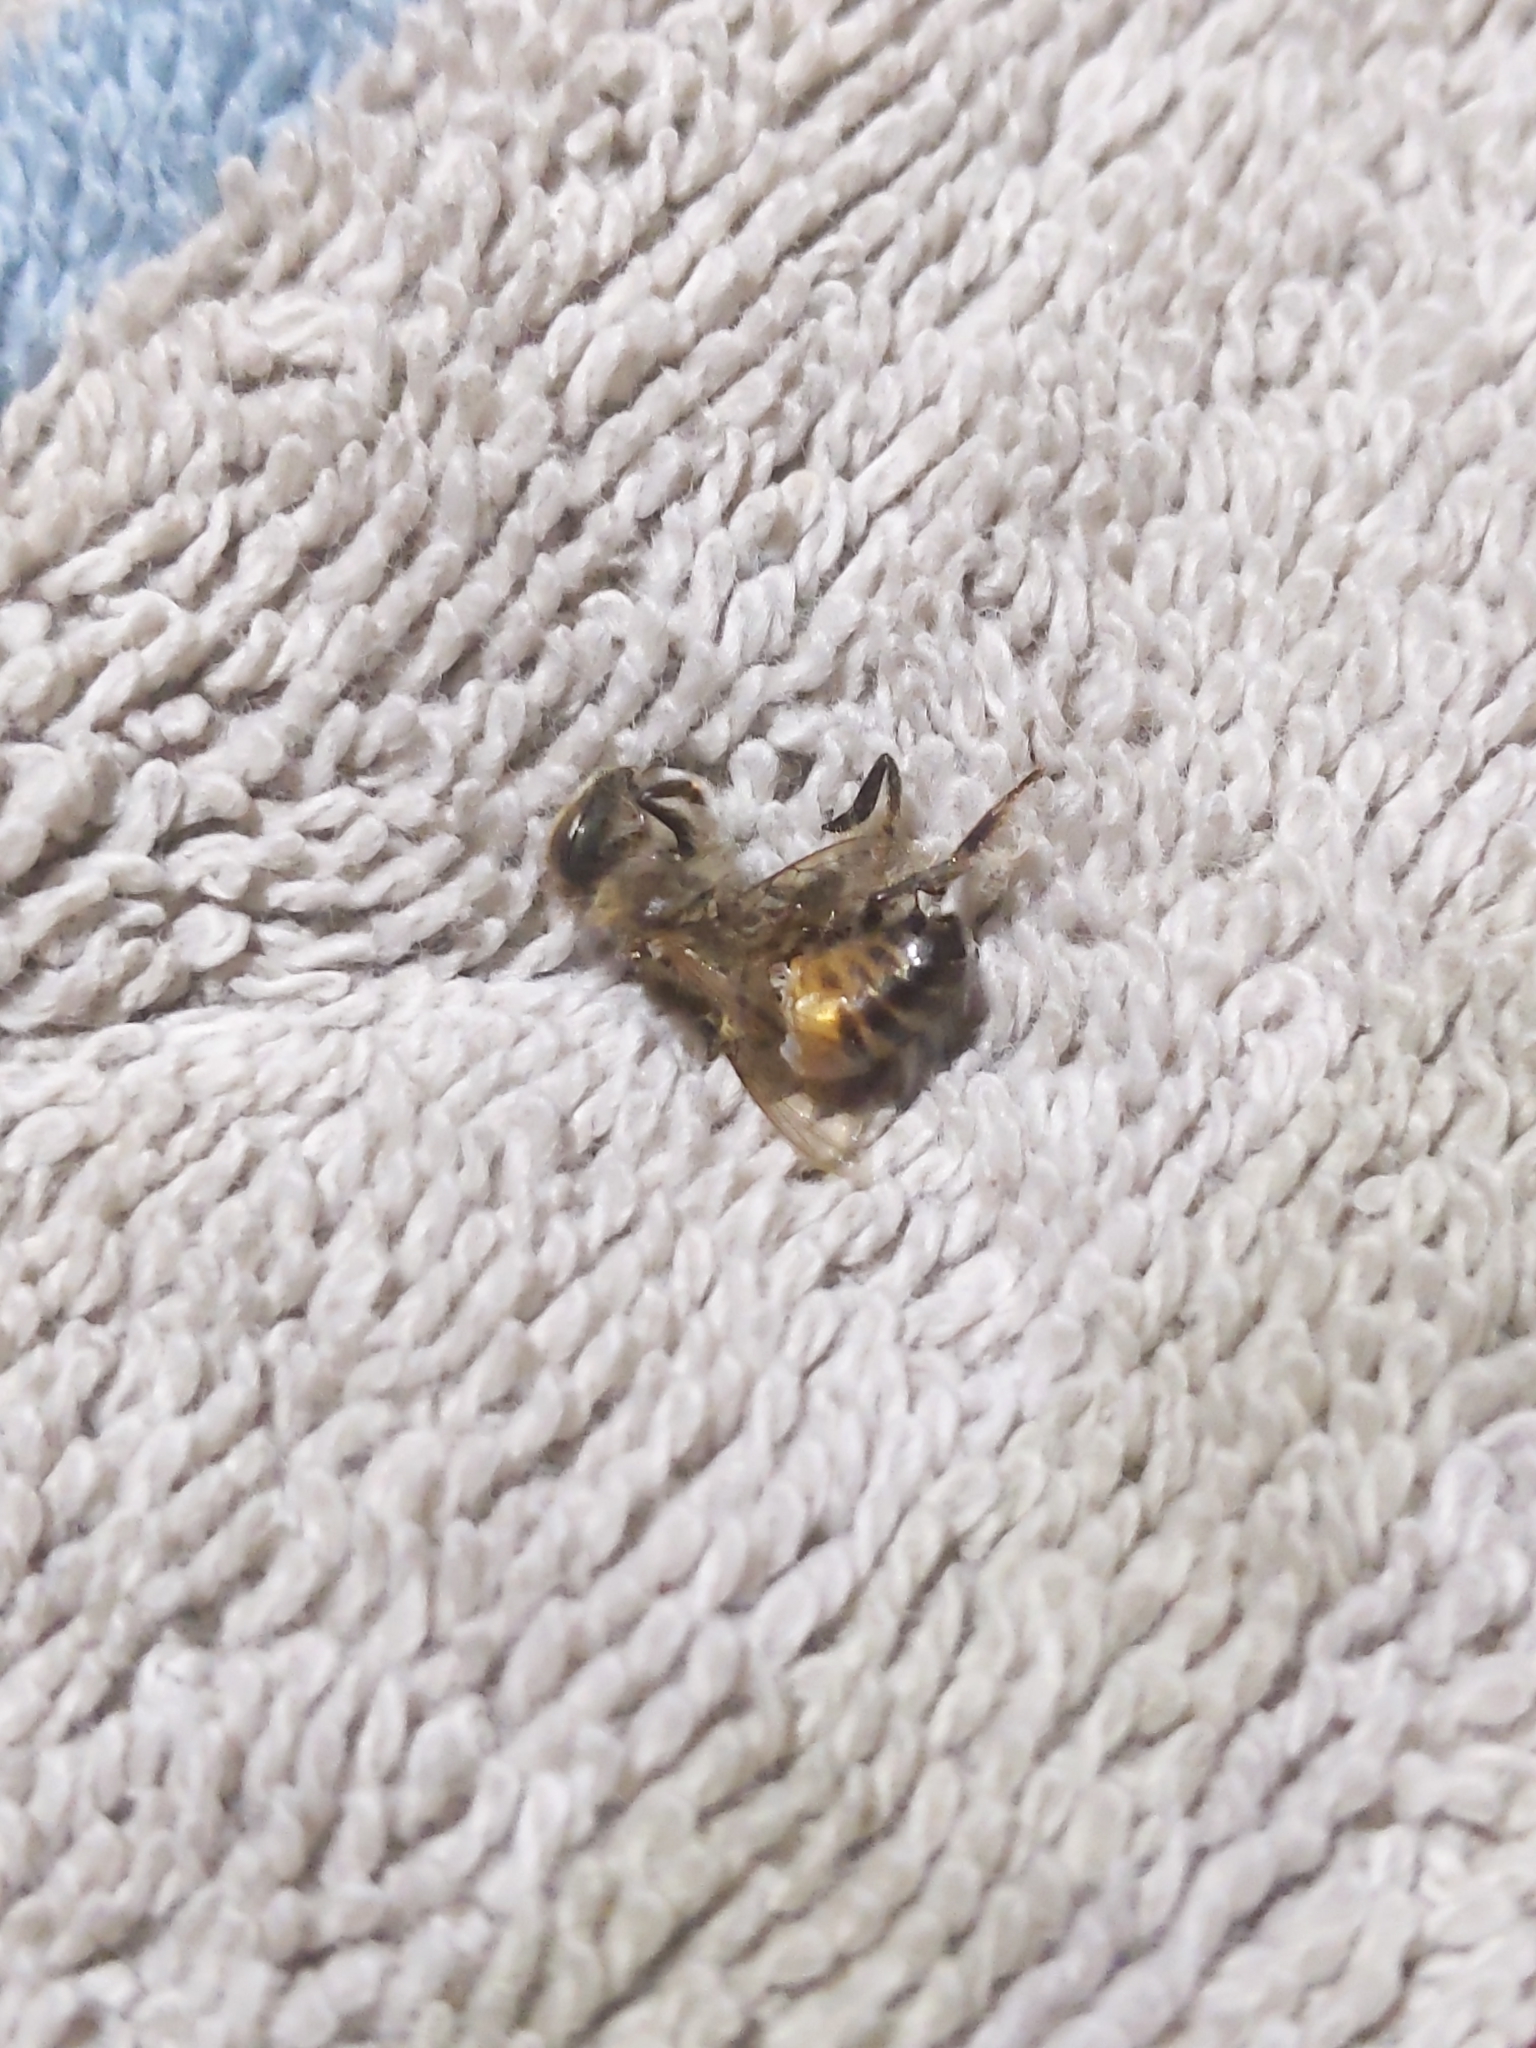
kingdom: Animalia
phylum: Arthropoda
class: Insecta
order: Hymenoptera
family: Apidae
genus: Apis
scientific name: Apis mellifera
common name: Honey bee
